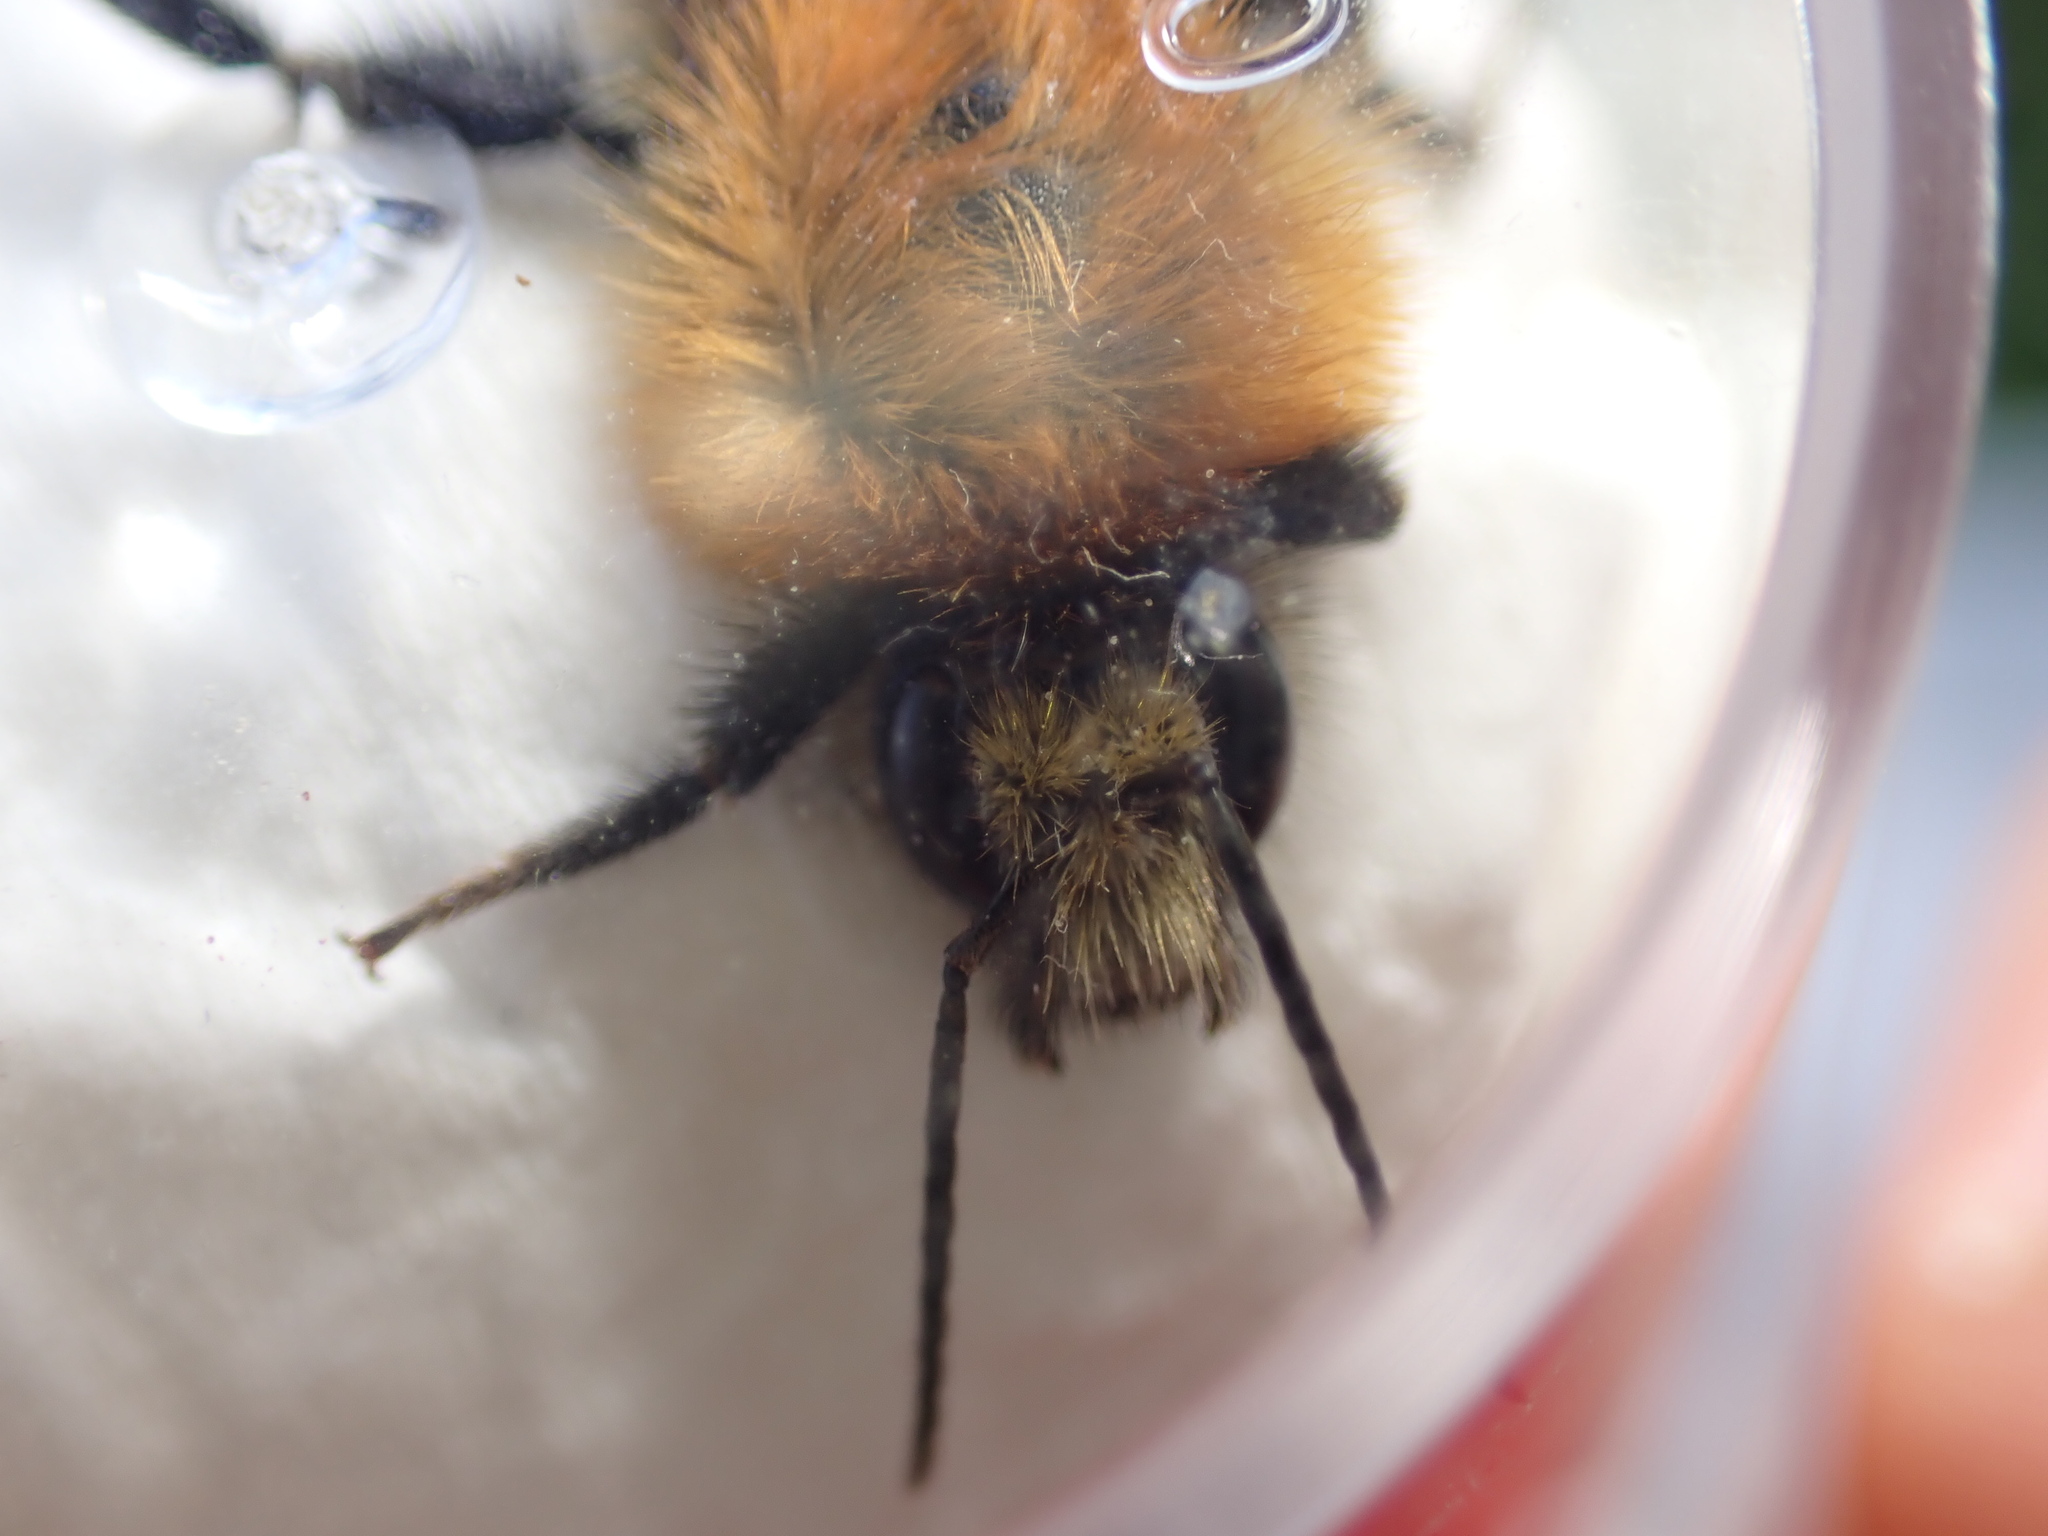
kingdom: Animalia
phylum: Arthropoda
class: Insecta
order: Hymenoptera
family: Apidae
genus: Bombus
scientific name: Bombus pascuorum
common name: Common carder bee
